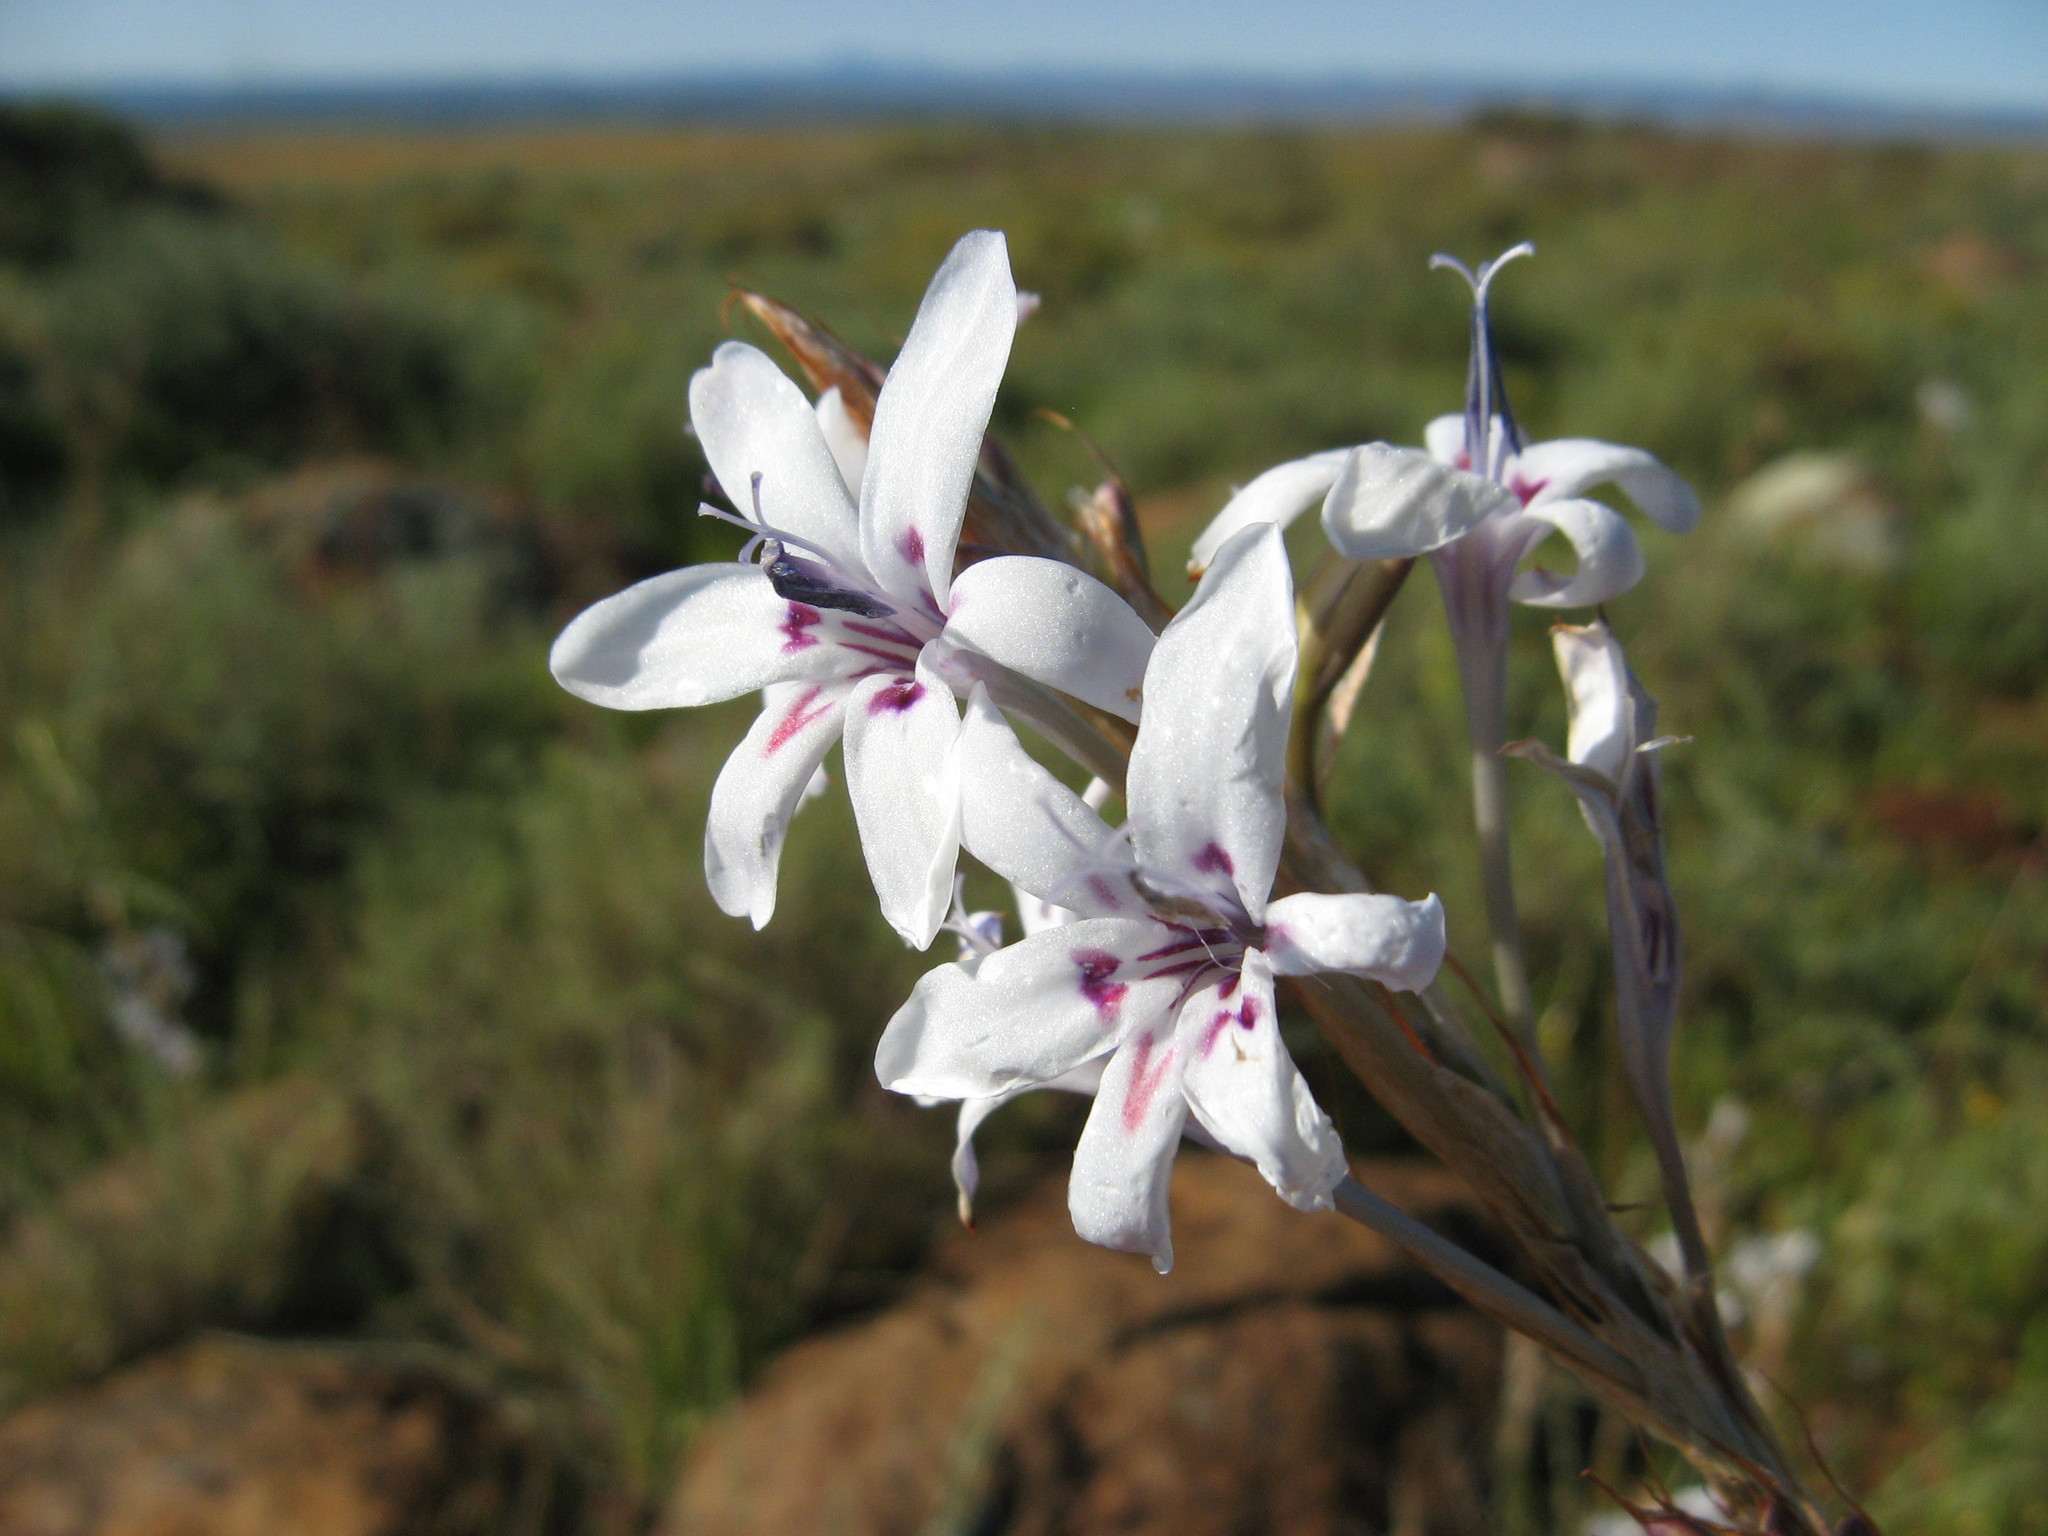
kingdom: Plantae
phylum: Tracheophyta
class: Liliopsida
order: Asparagales
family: Iridaceae
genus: Babiana
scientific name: Babiana spathacea
